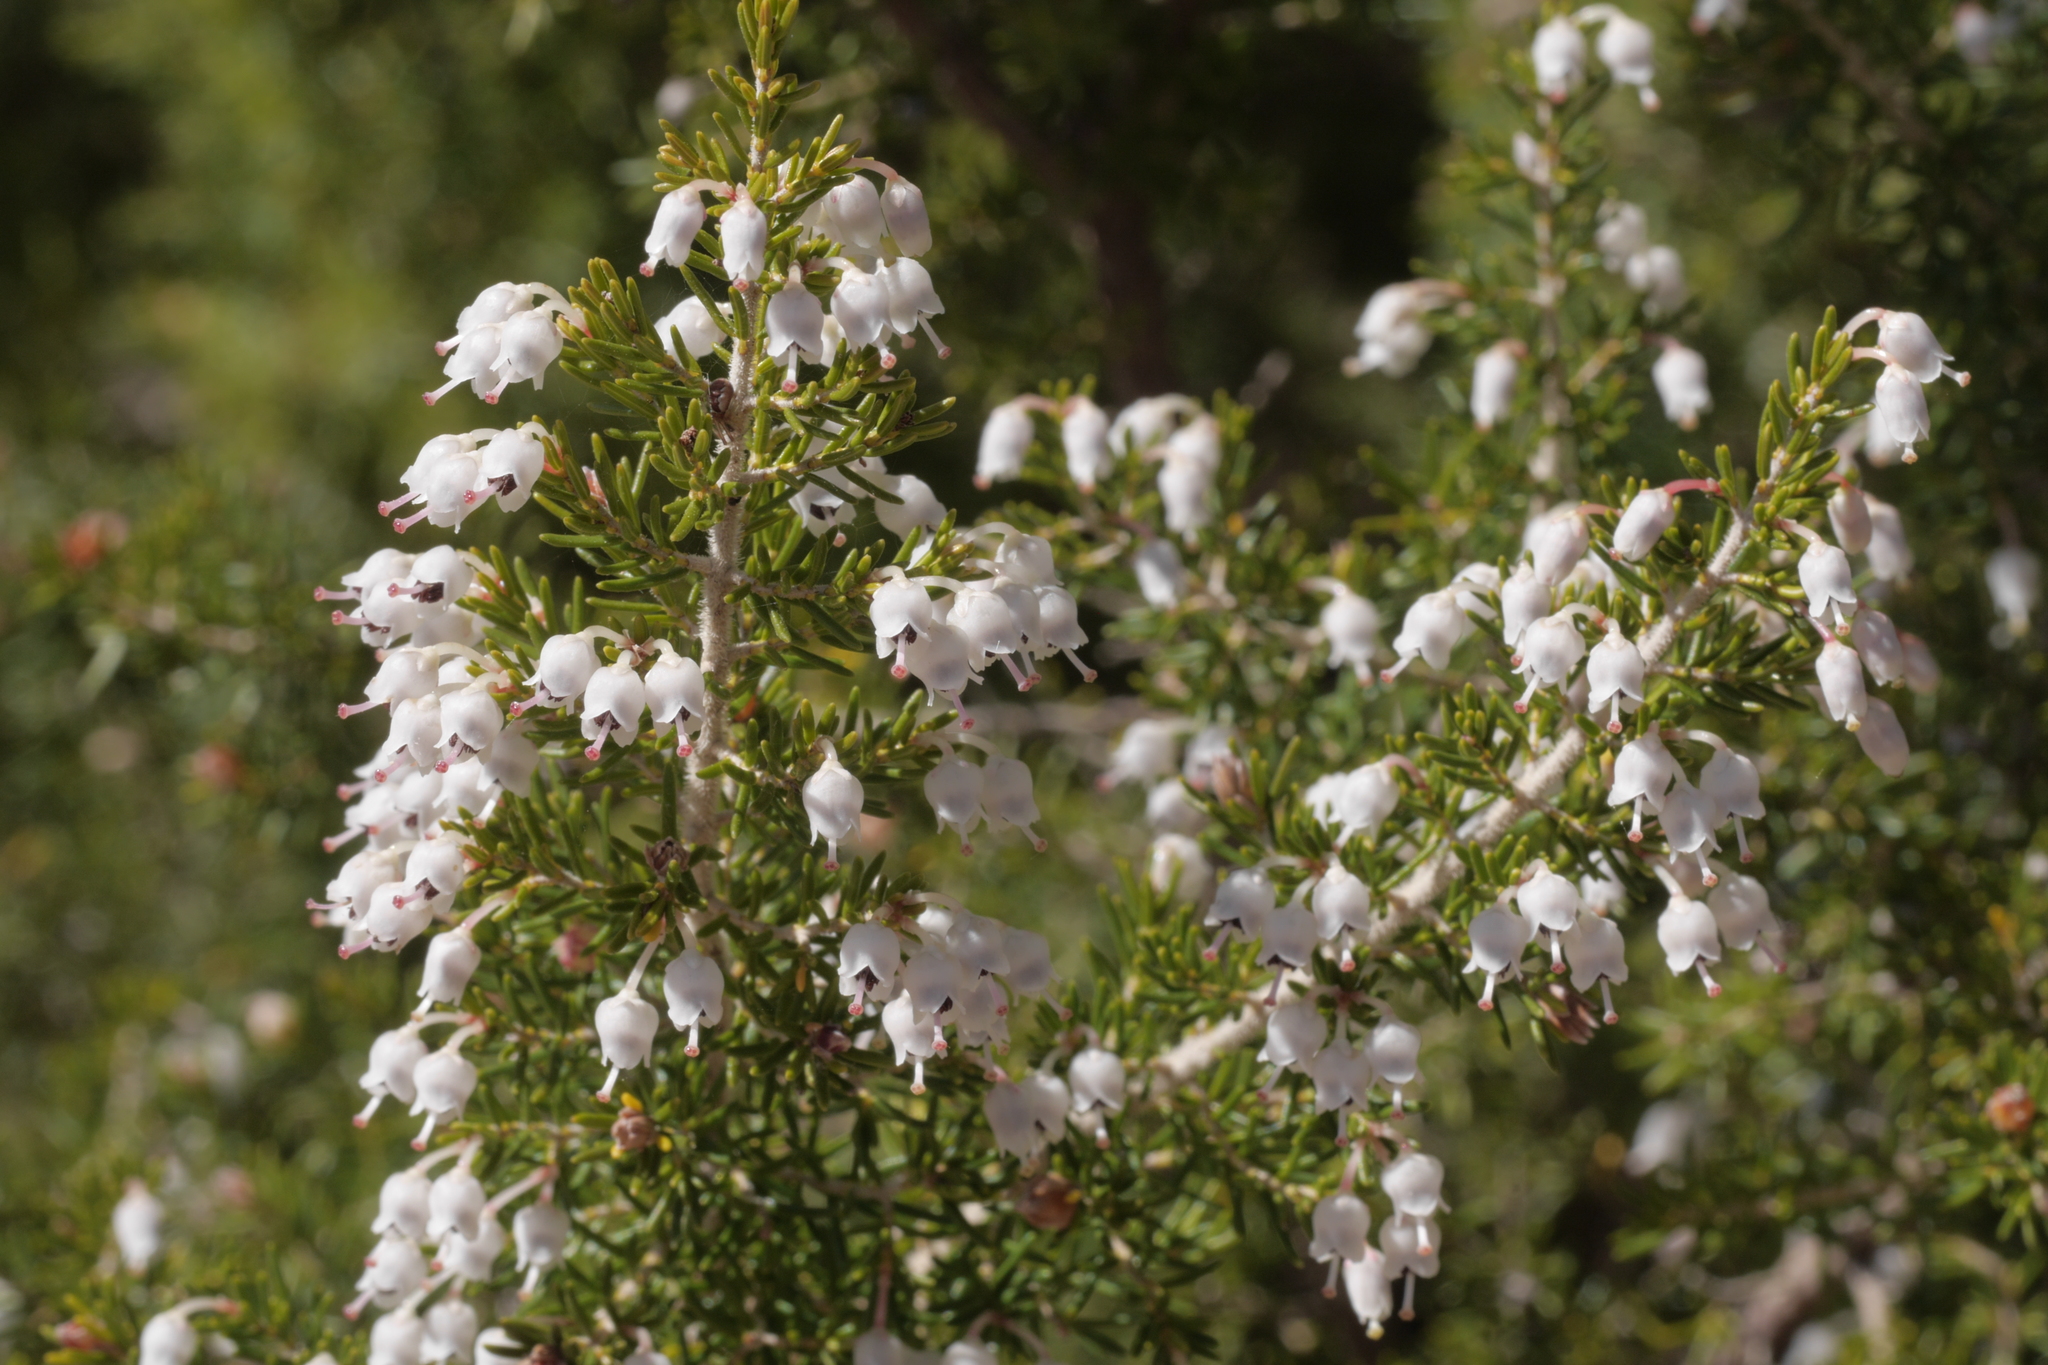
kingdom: Plantae
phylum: Tracheophyta
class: Magnoliopsida
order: Ericales
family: Ericaceae
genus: Erica
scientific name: Erica arborea
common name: Tree heath
